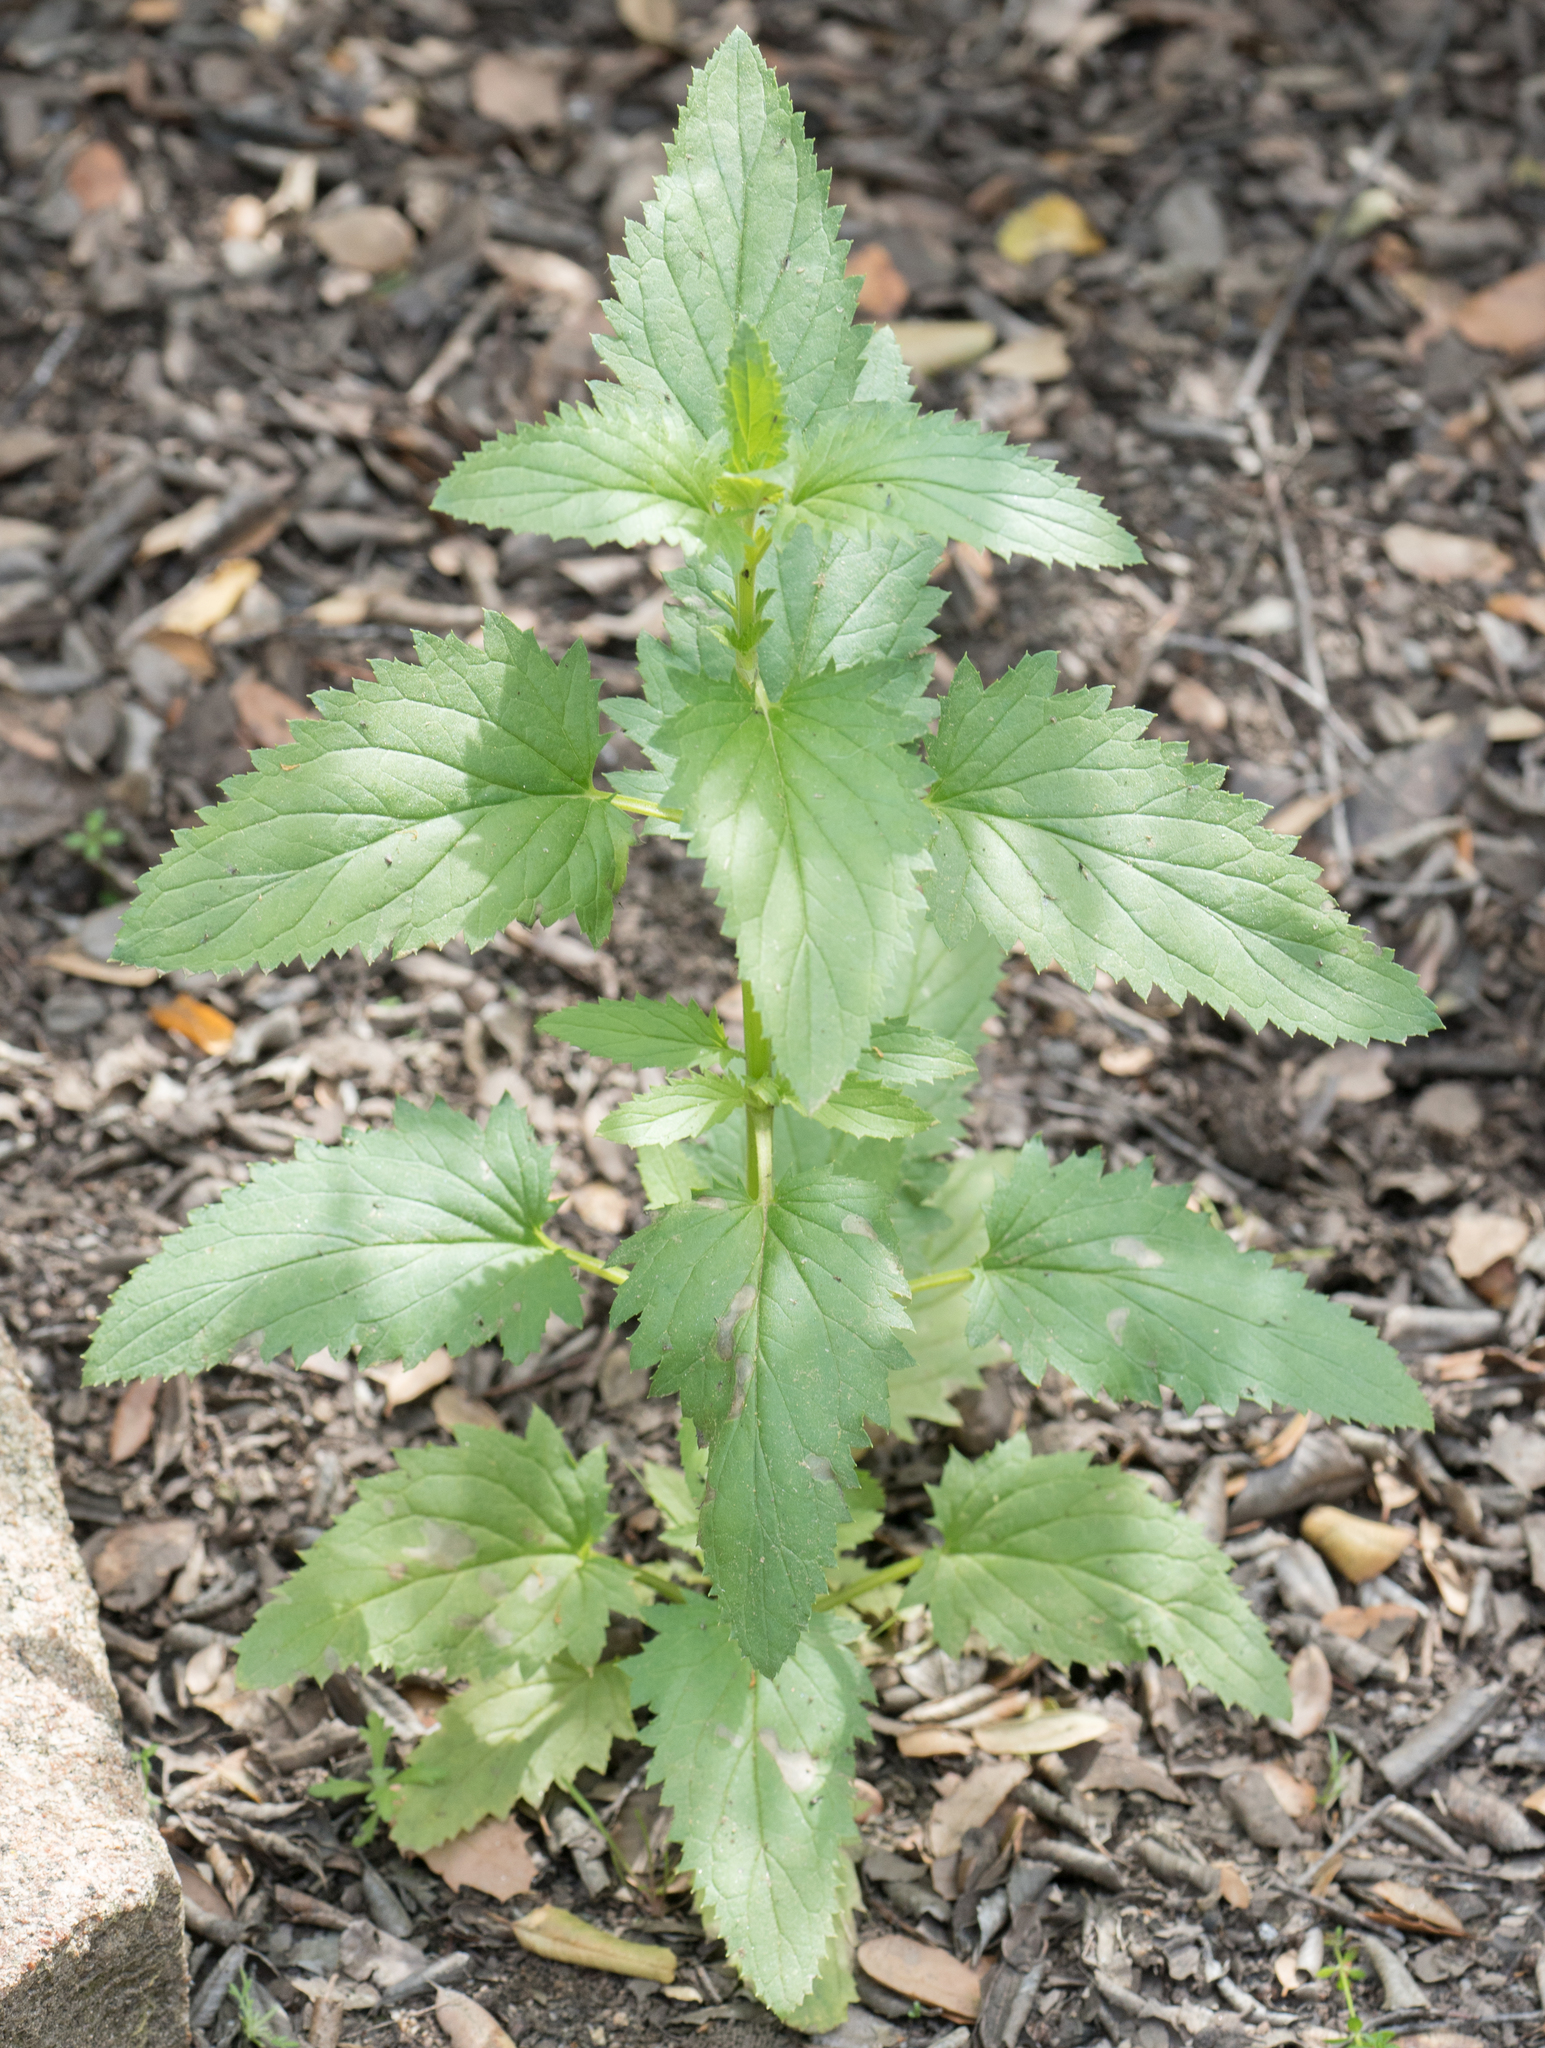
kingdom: Plantae
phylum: Tracheophyta
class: Magnoliopsida
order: Lamiales
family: Scrophulariaceae
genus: Scrophularia
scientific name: Scrophularia californica
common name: California figwort
